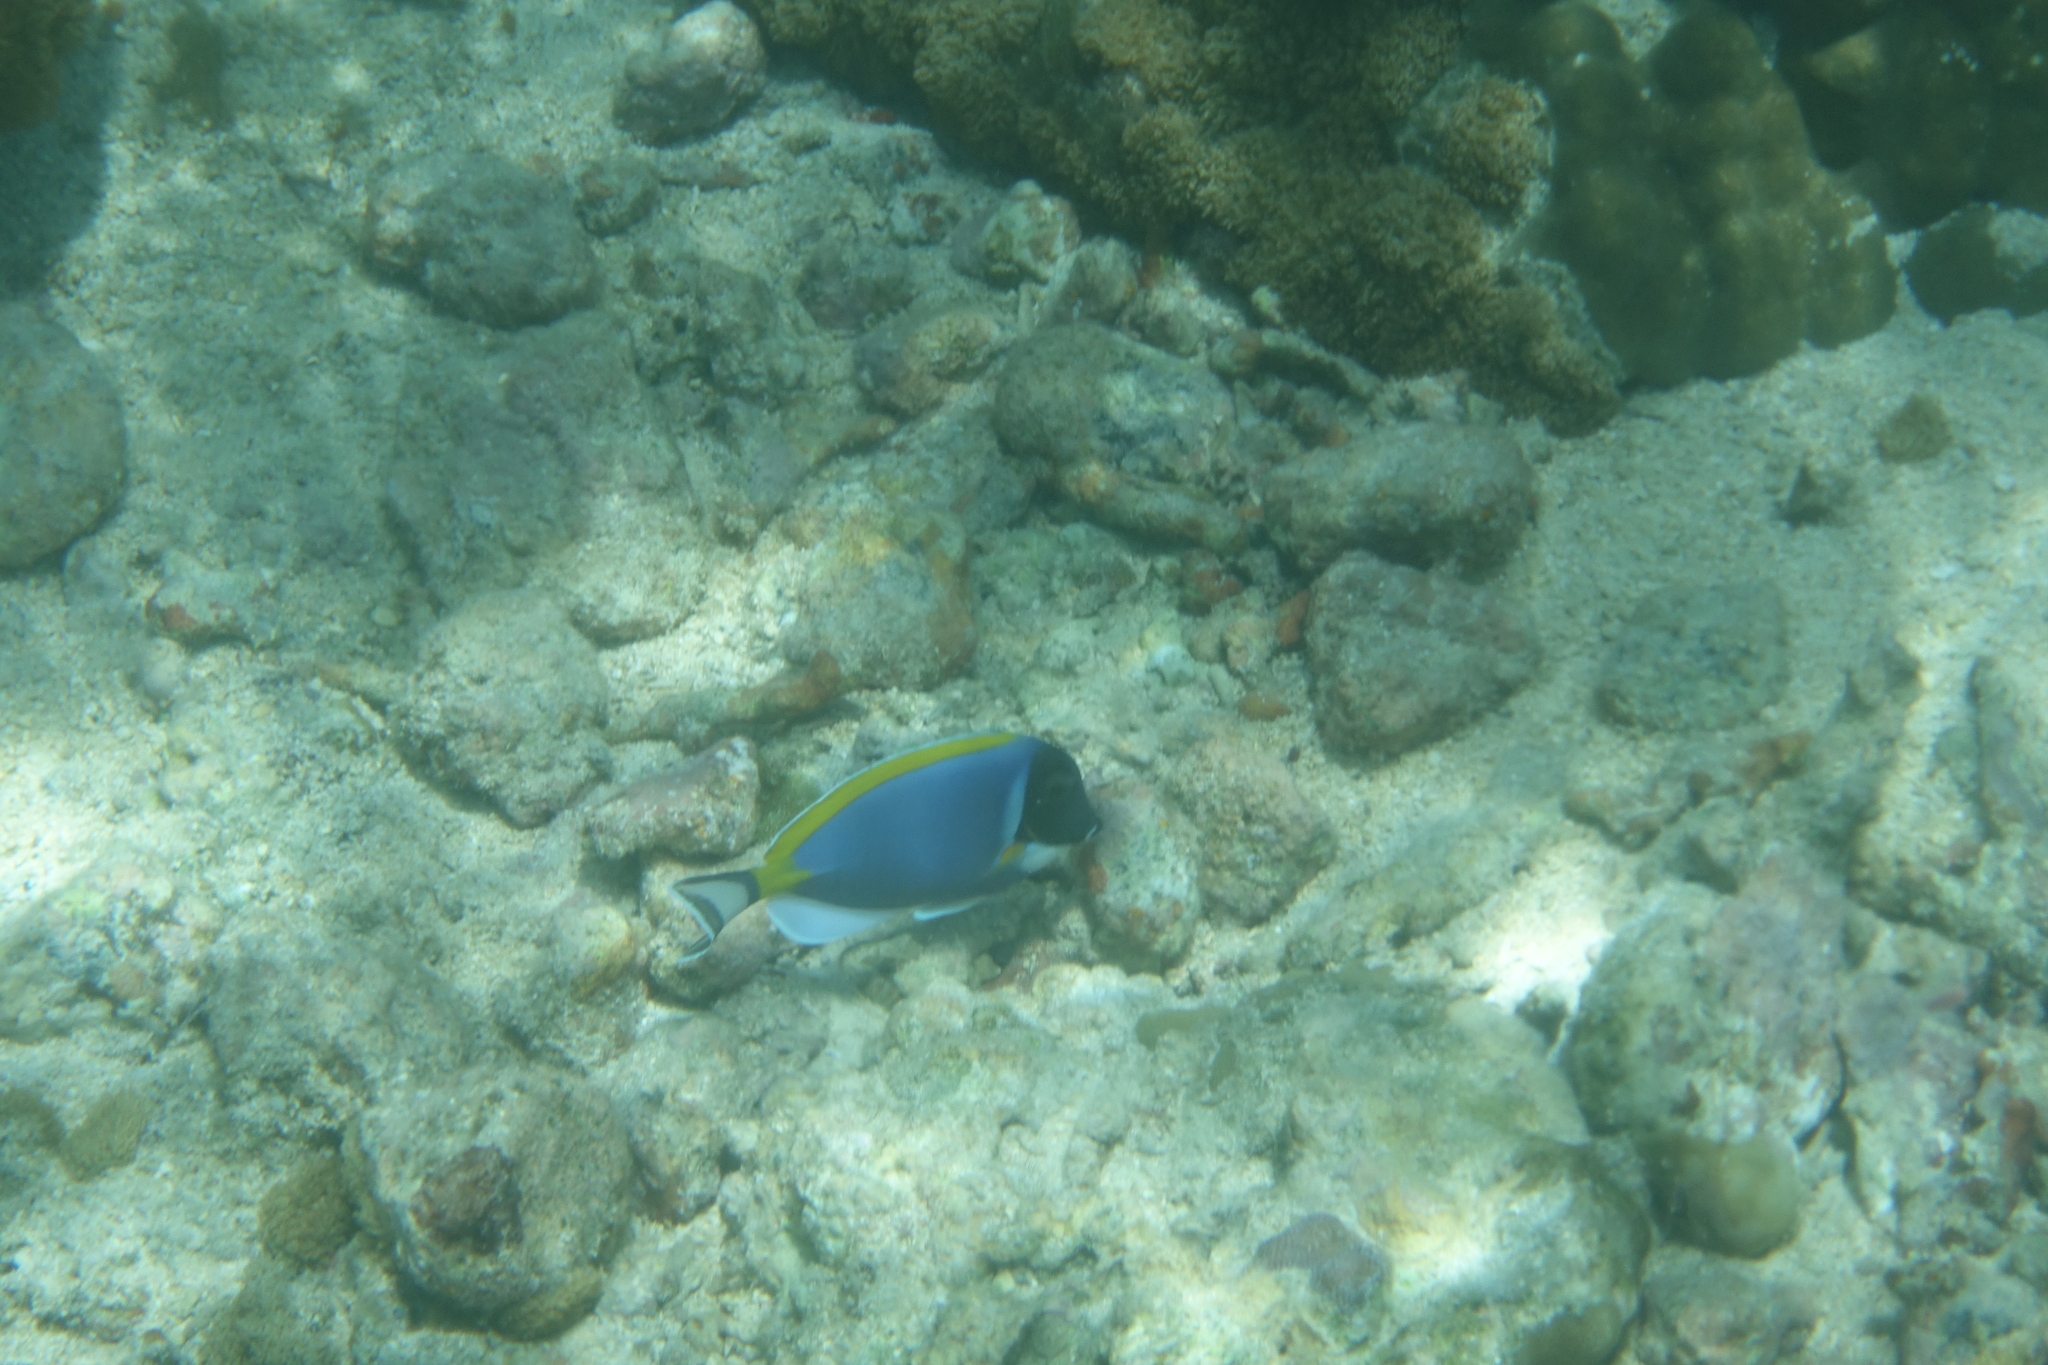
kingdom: Animalia
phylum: Chordata
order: Perciformes
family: Acanthuridae
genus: Acanthurus
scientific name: Acanthurus leucosternon
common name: Blue surgeonfish
